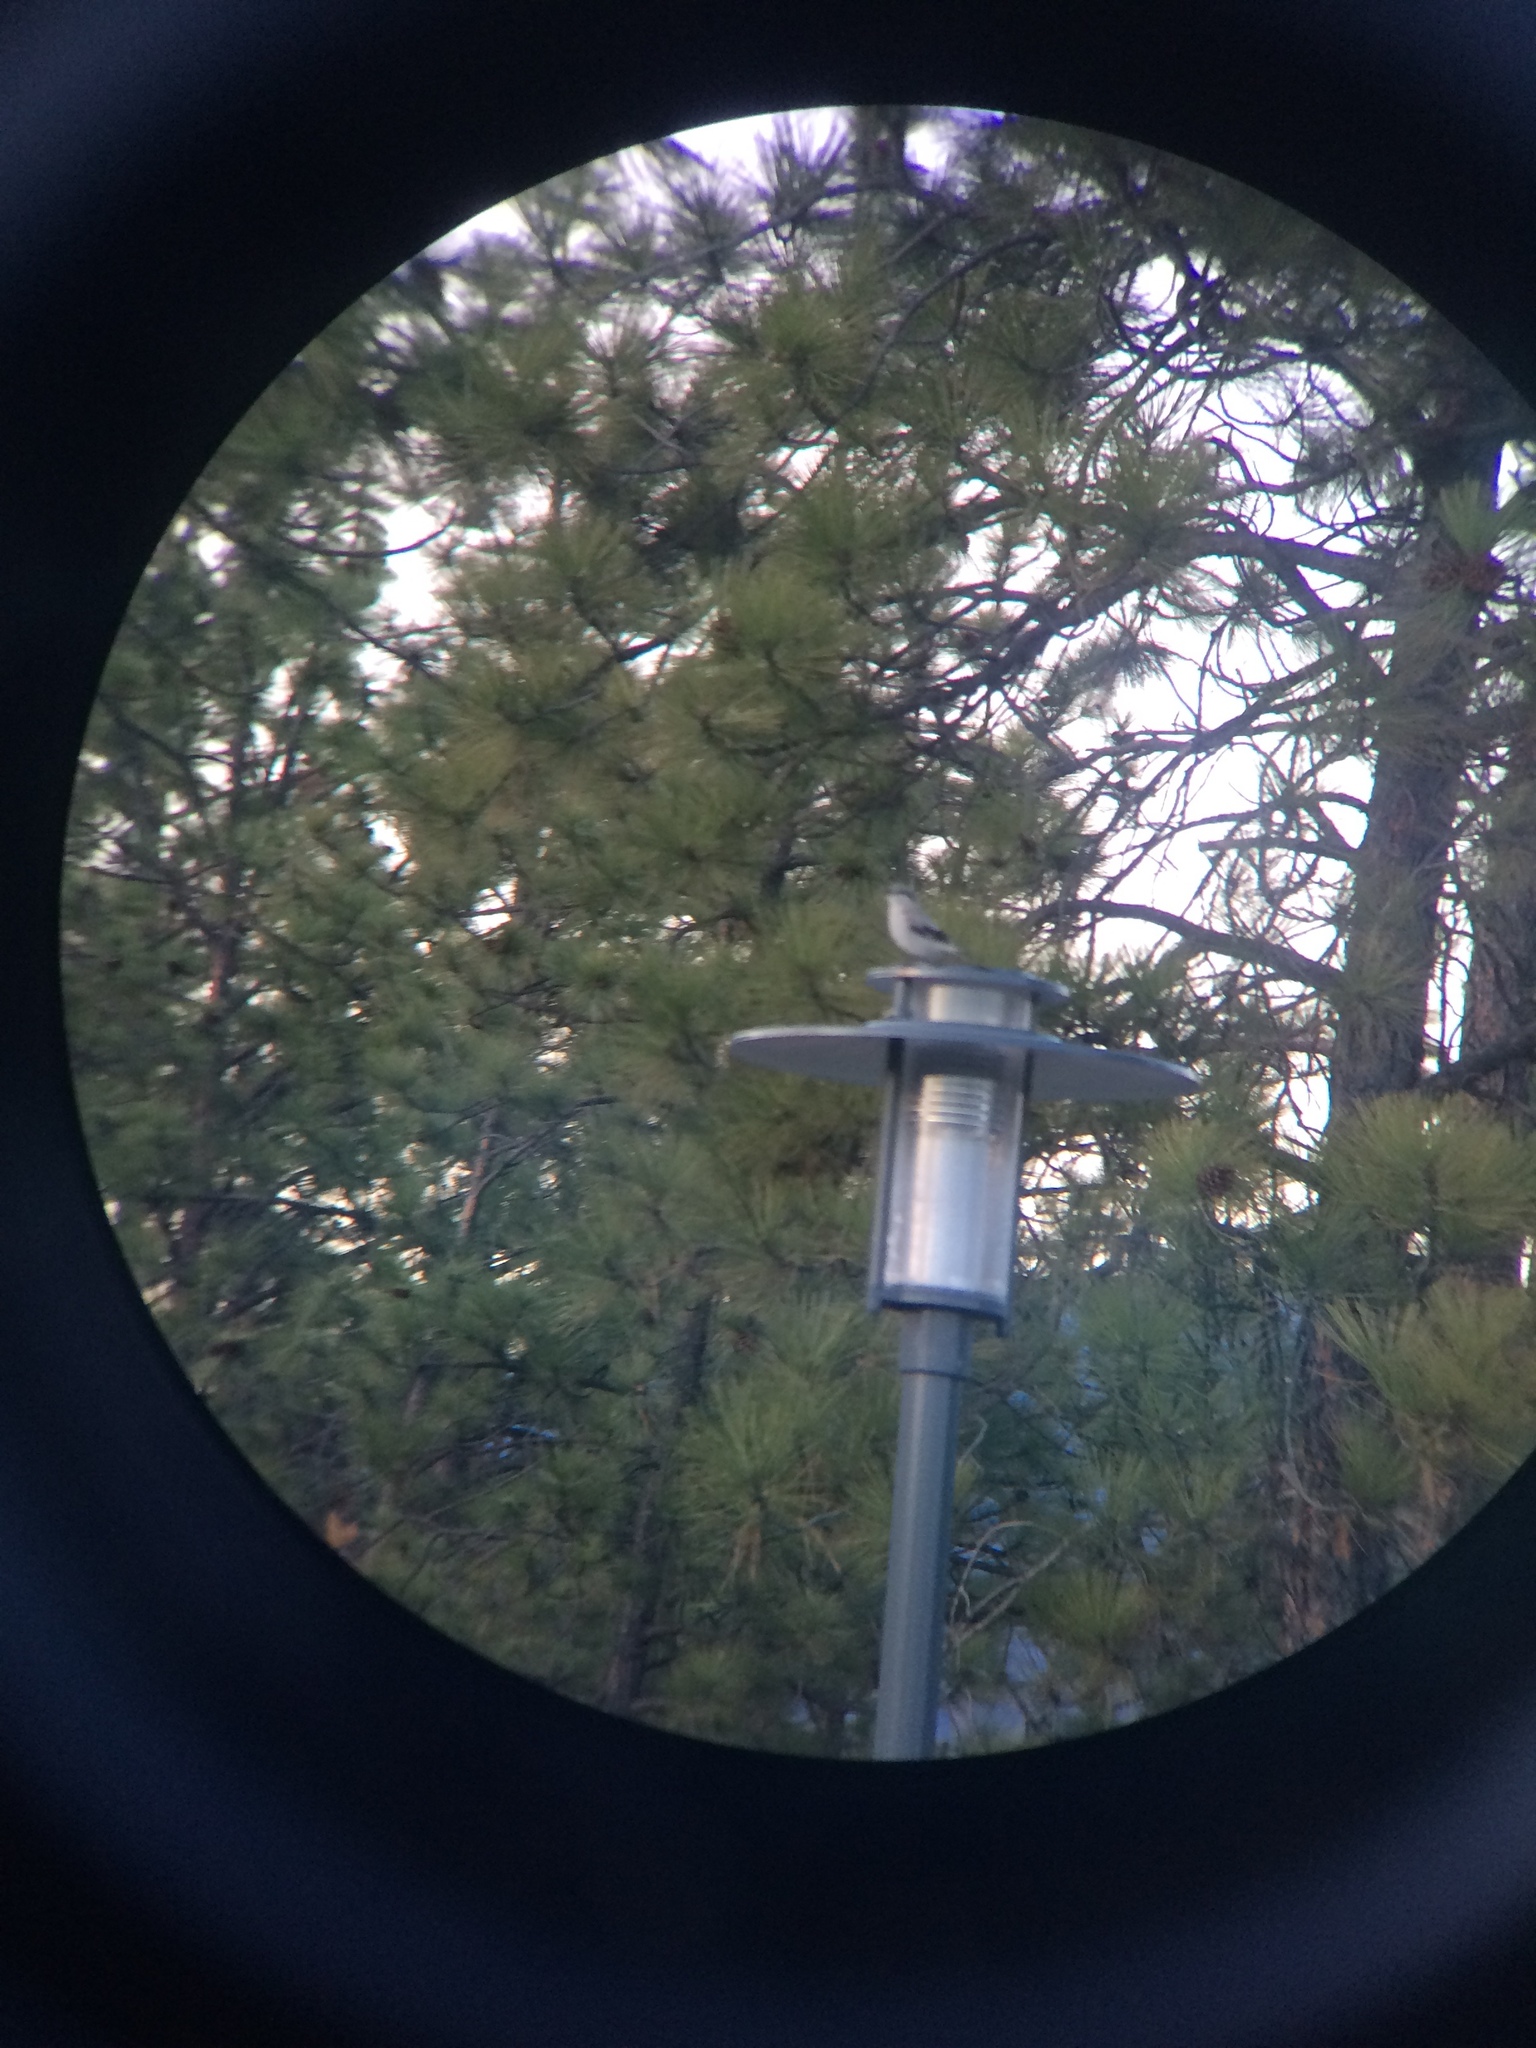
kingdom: Animalia
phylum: Chordata
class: Aves
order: Passeriformes
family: Laniidae
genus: Lanius
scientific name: Lanius borealis
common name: Northern shrike
